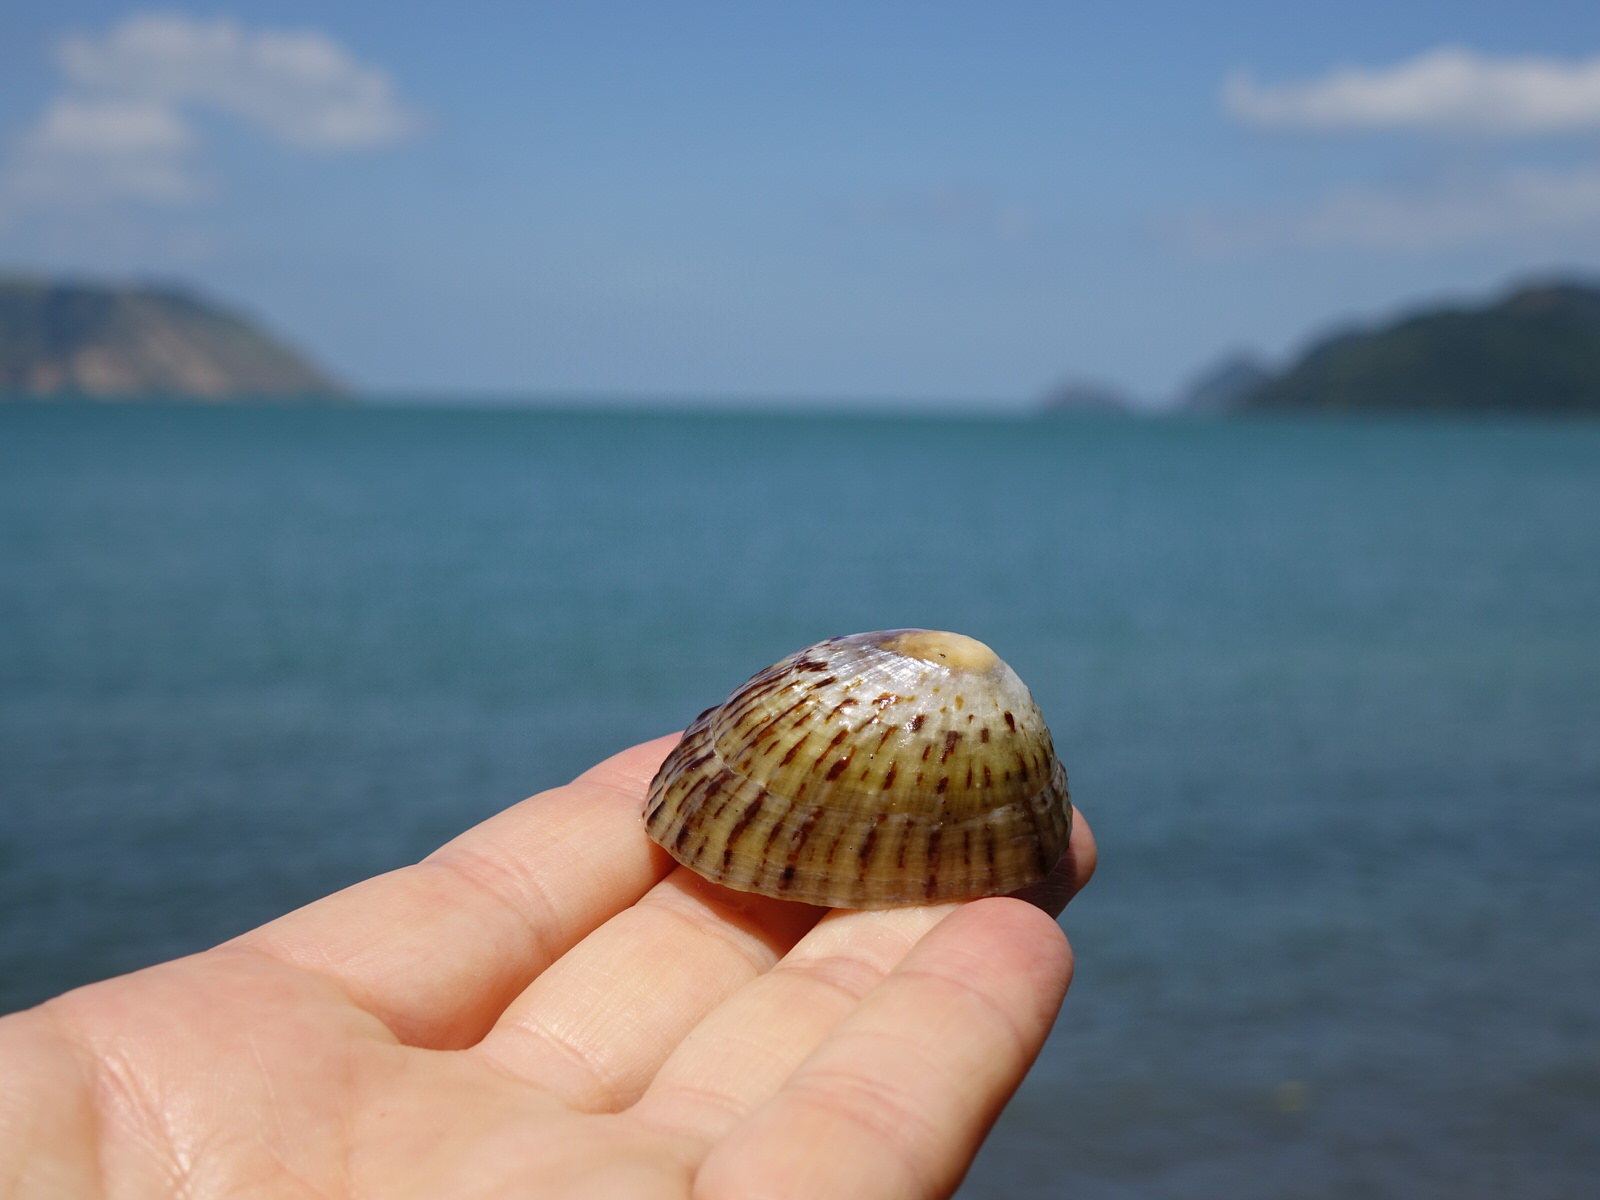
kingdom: Animalia
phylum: Mollusca
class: Gastropoda
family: Nacellidae
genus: Cellana
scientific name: Cellana radians
